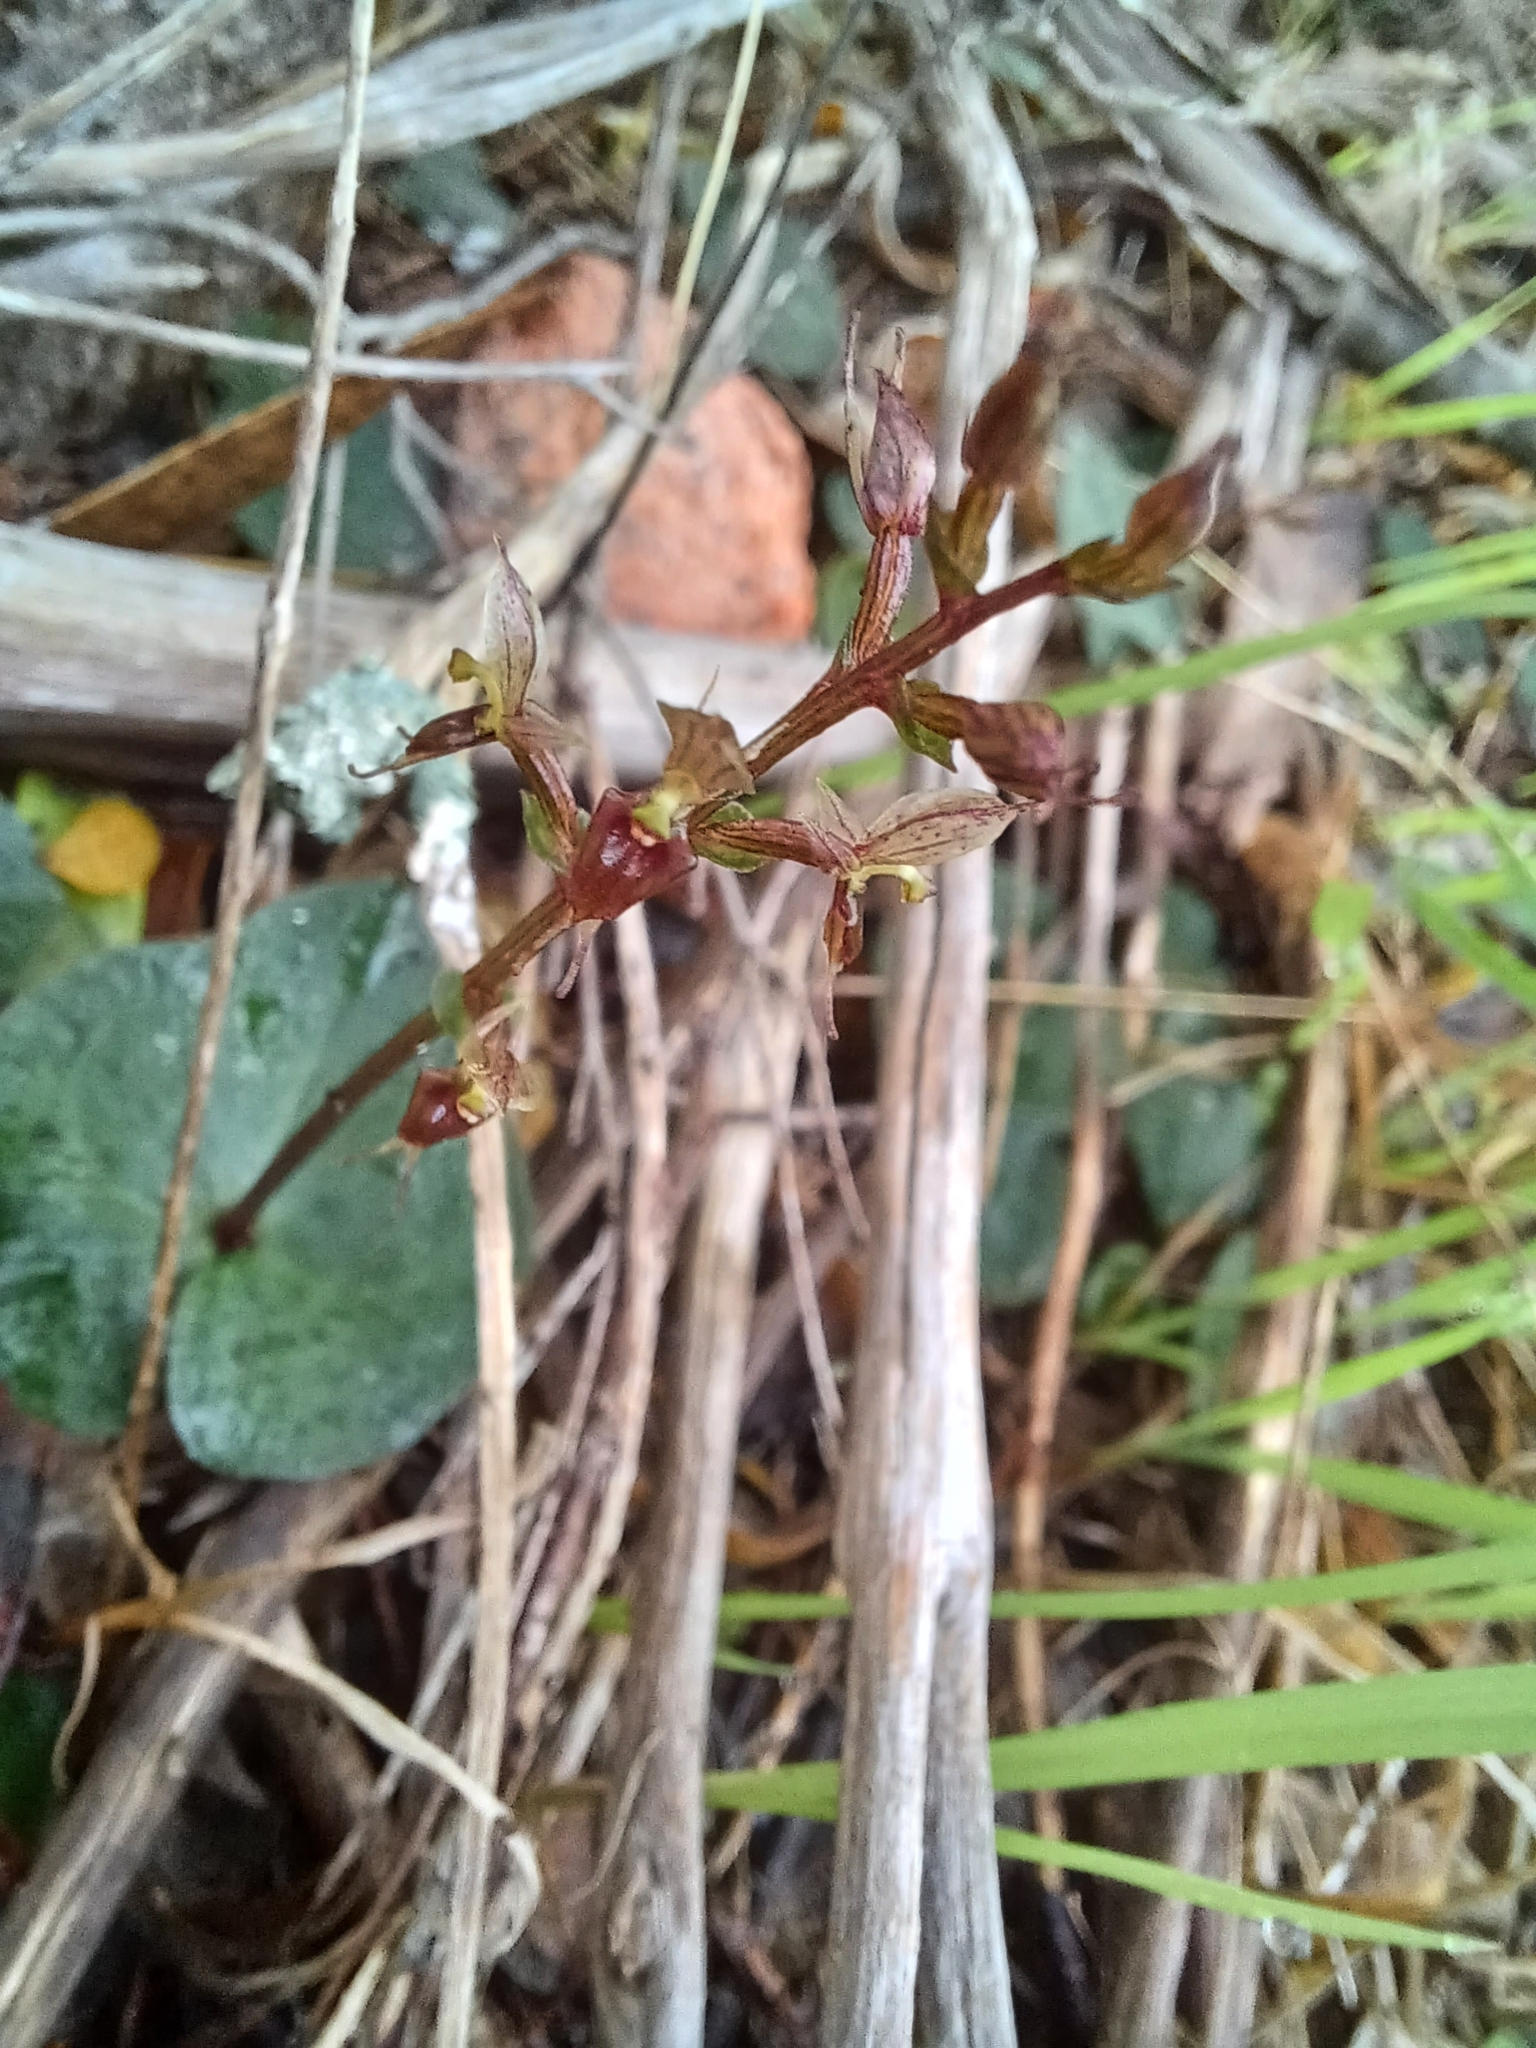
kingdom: Plantae
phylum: Tracheophyta
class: Liliopsida
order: Asparagales
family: Orchidaceae
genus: Acianthus
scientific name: Acianthus pusillus
